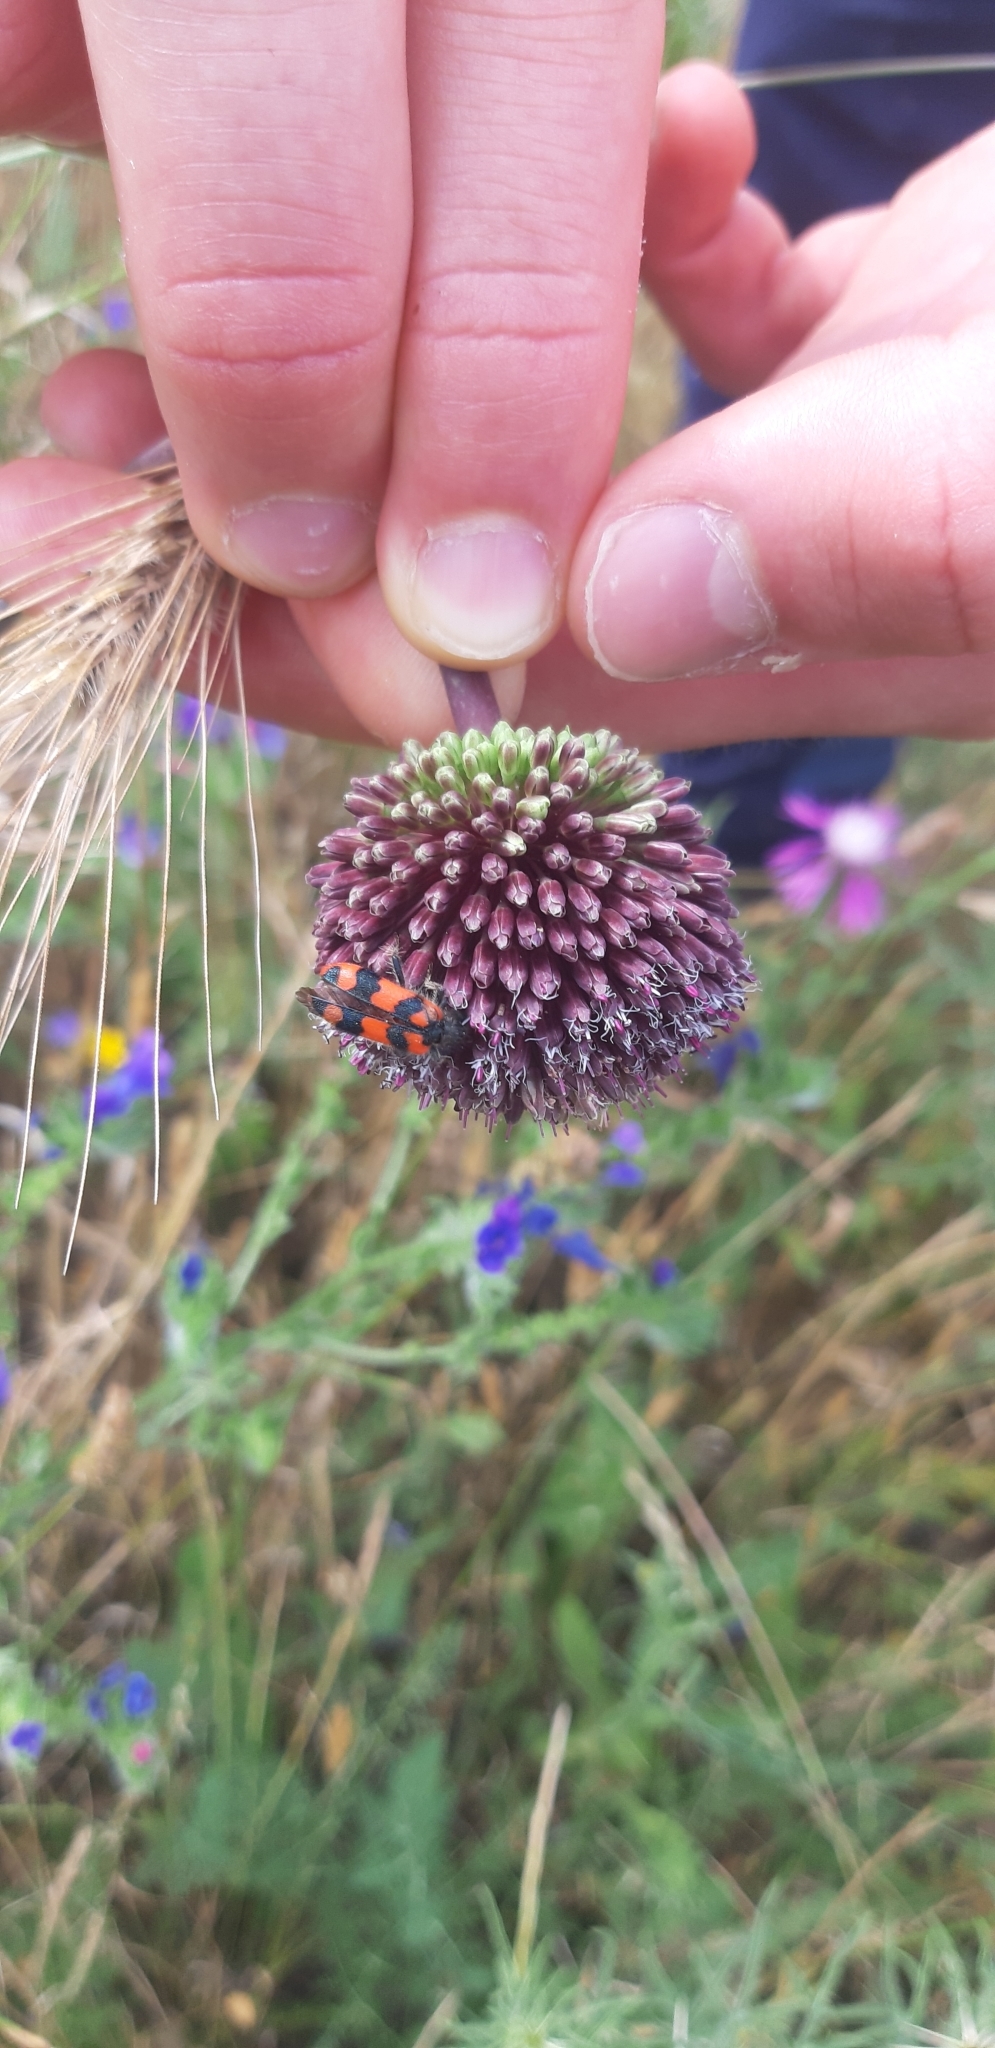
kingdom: Animalia
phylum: Arthropoda
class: Insecta
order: Coleoptera
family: Cleridae
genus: Trichodes
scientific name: Trichodes alvearius
